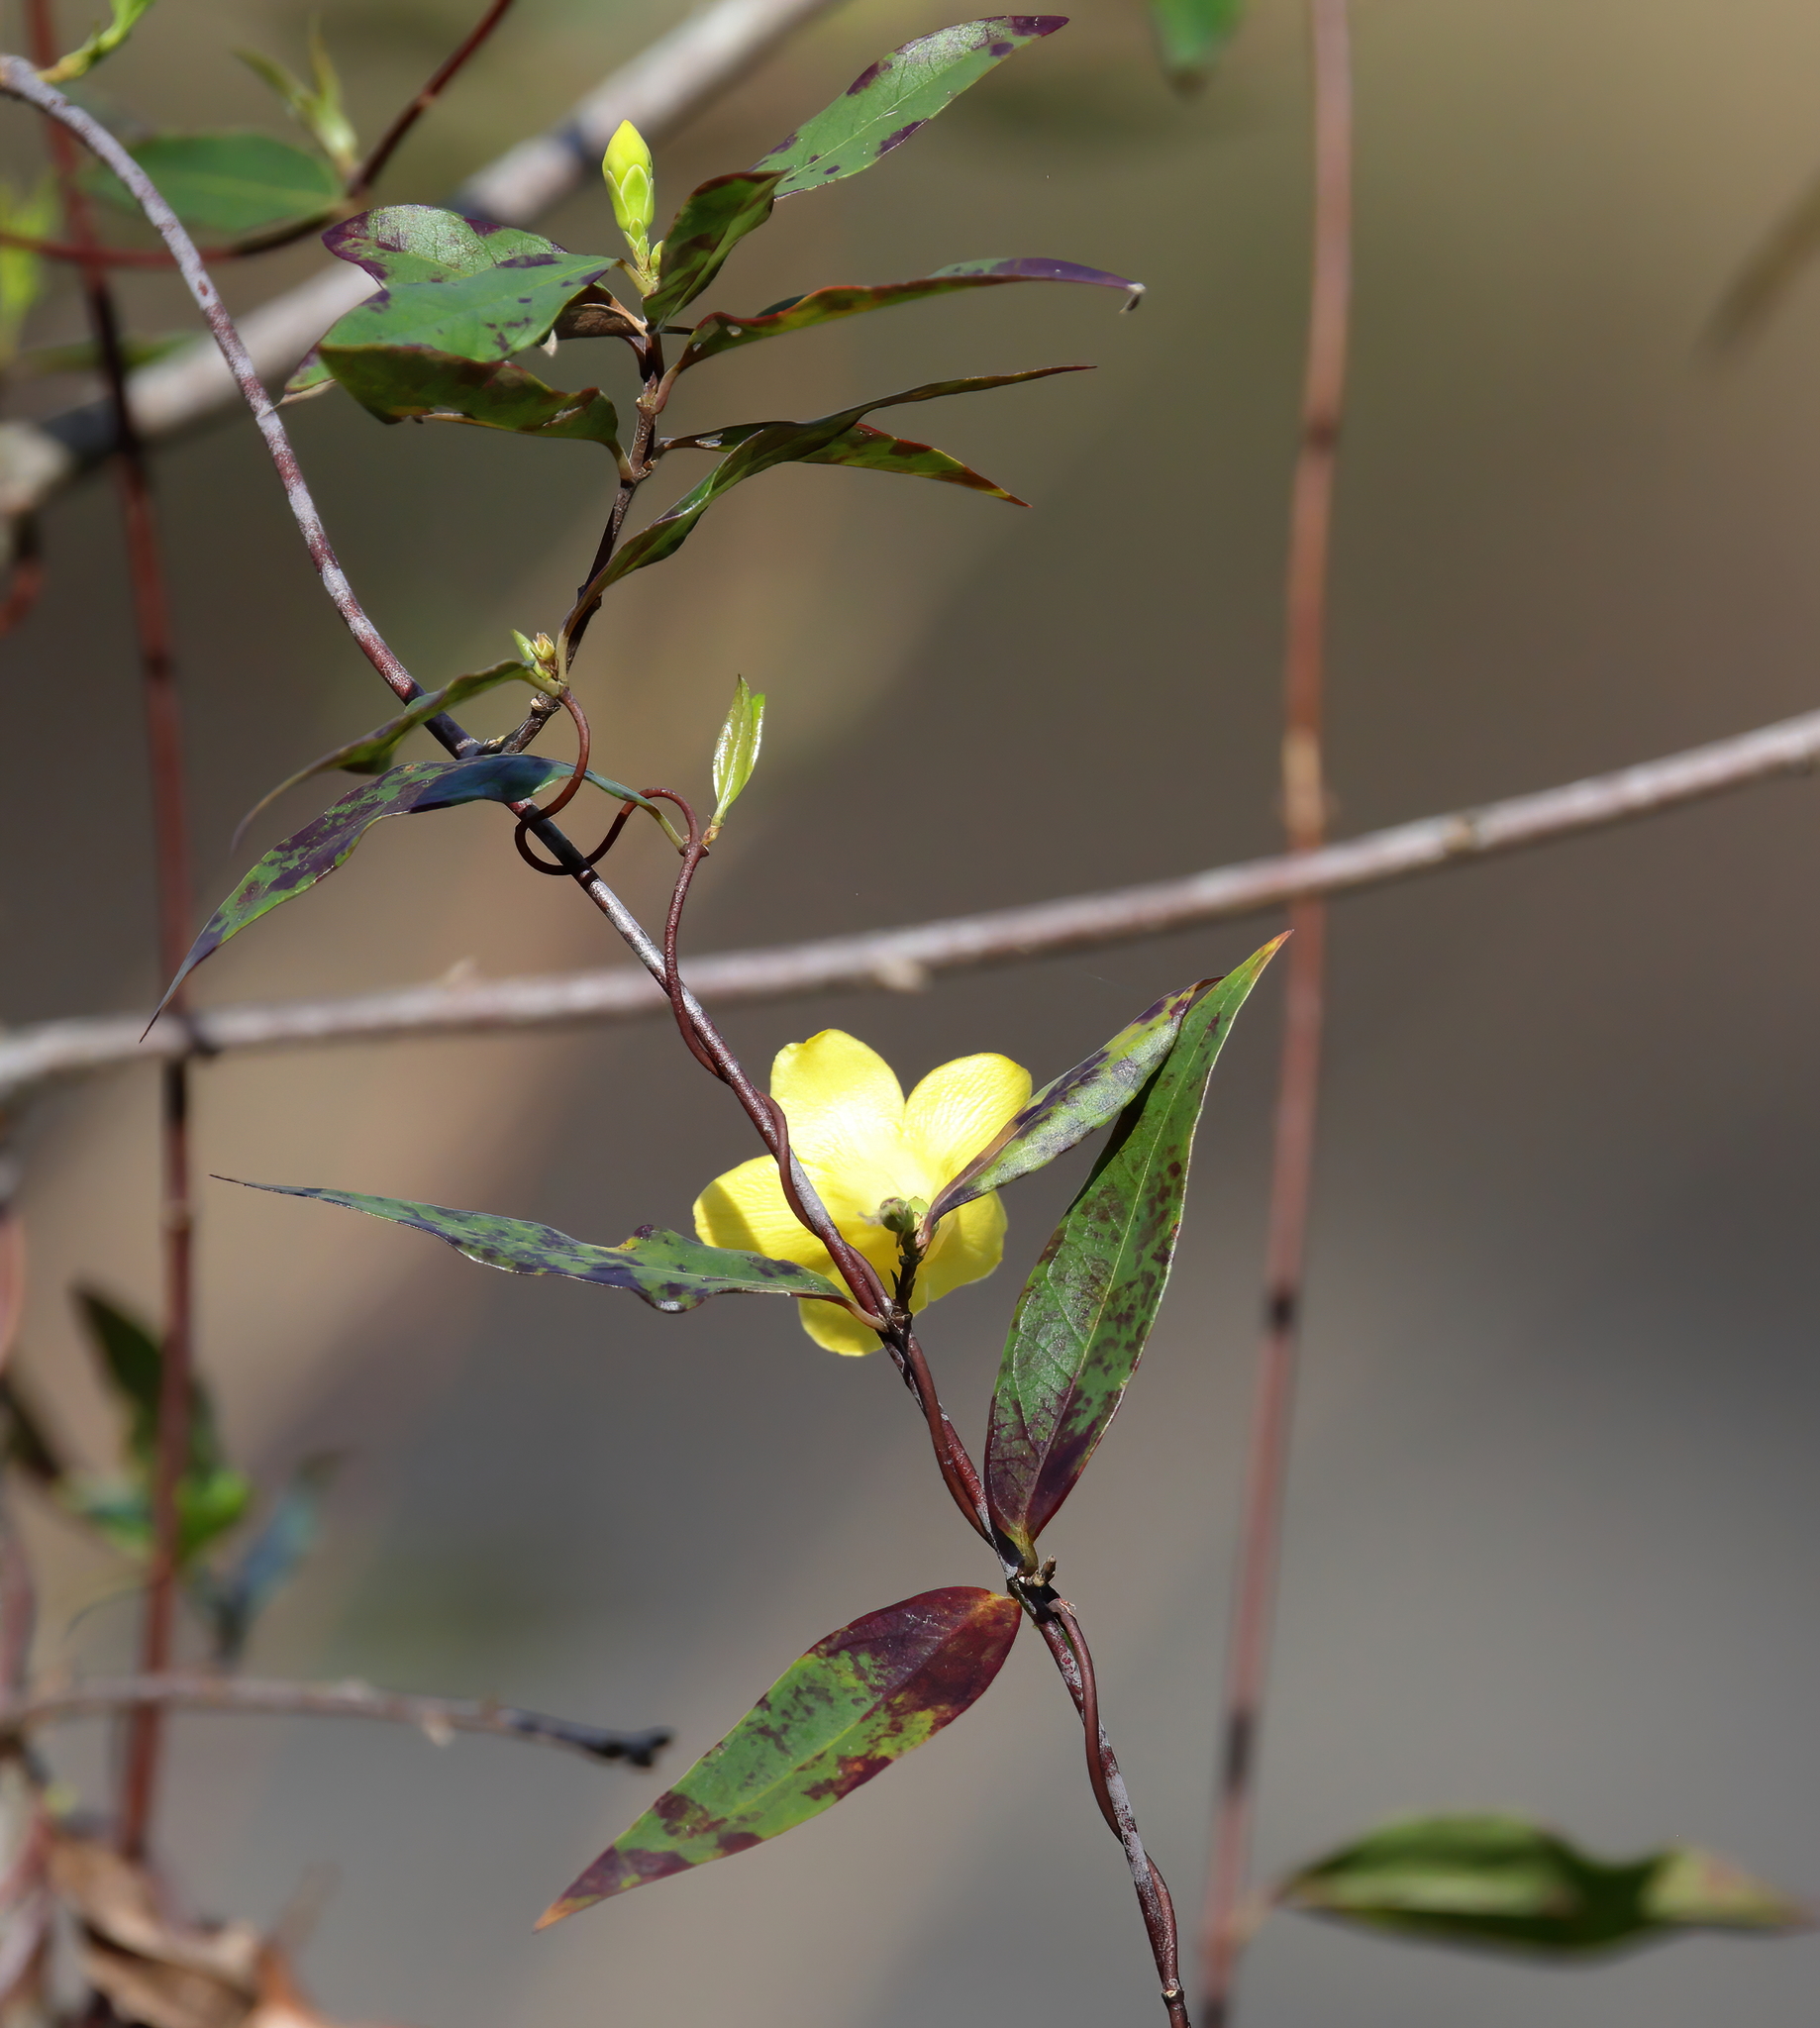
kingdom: Plantae
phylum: Tracheophyta
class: Magnoliopsida
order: Gentianales
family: Gelsemiaceae
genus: Gelsemium
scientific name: Gelsemium sempervirens
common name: Carolina-jasmine
